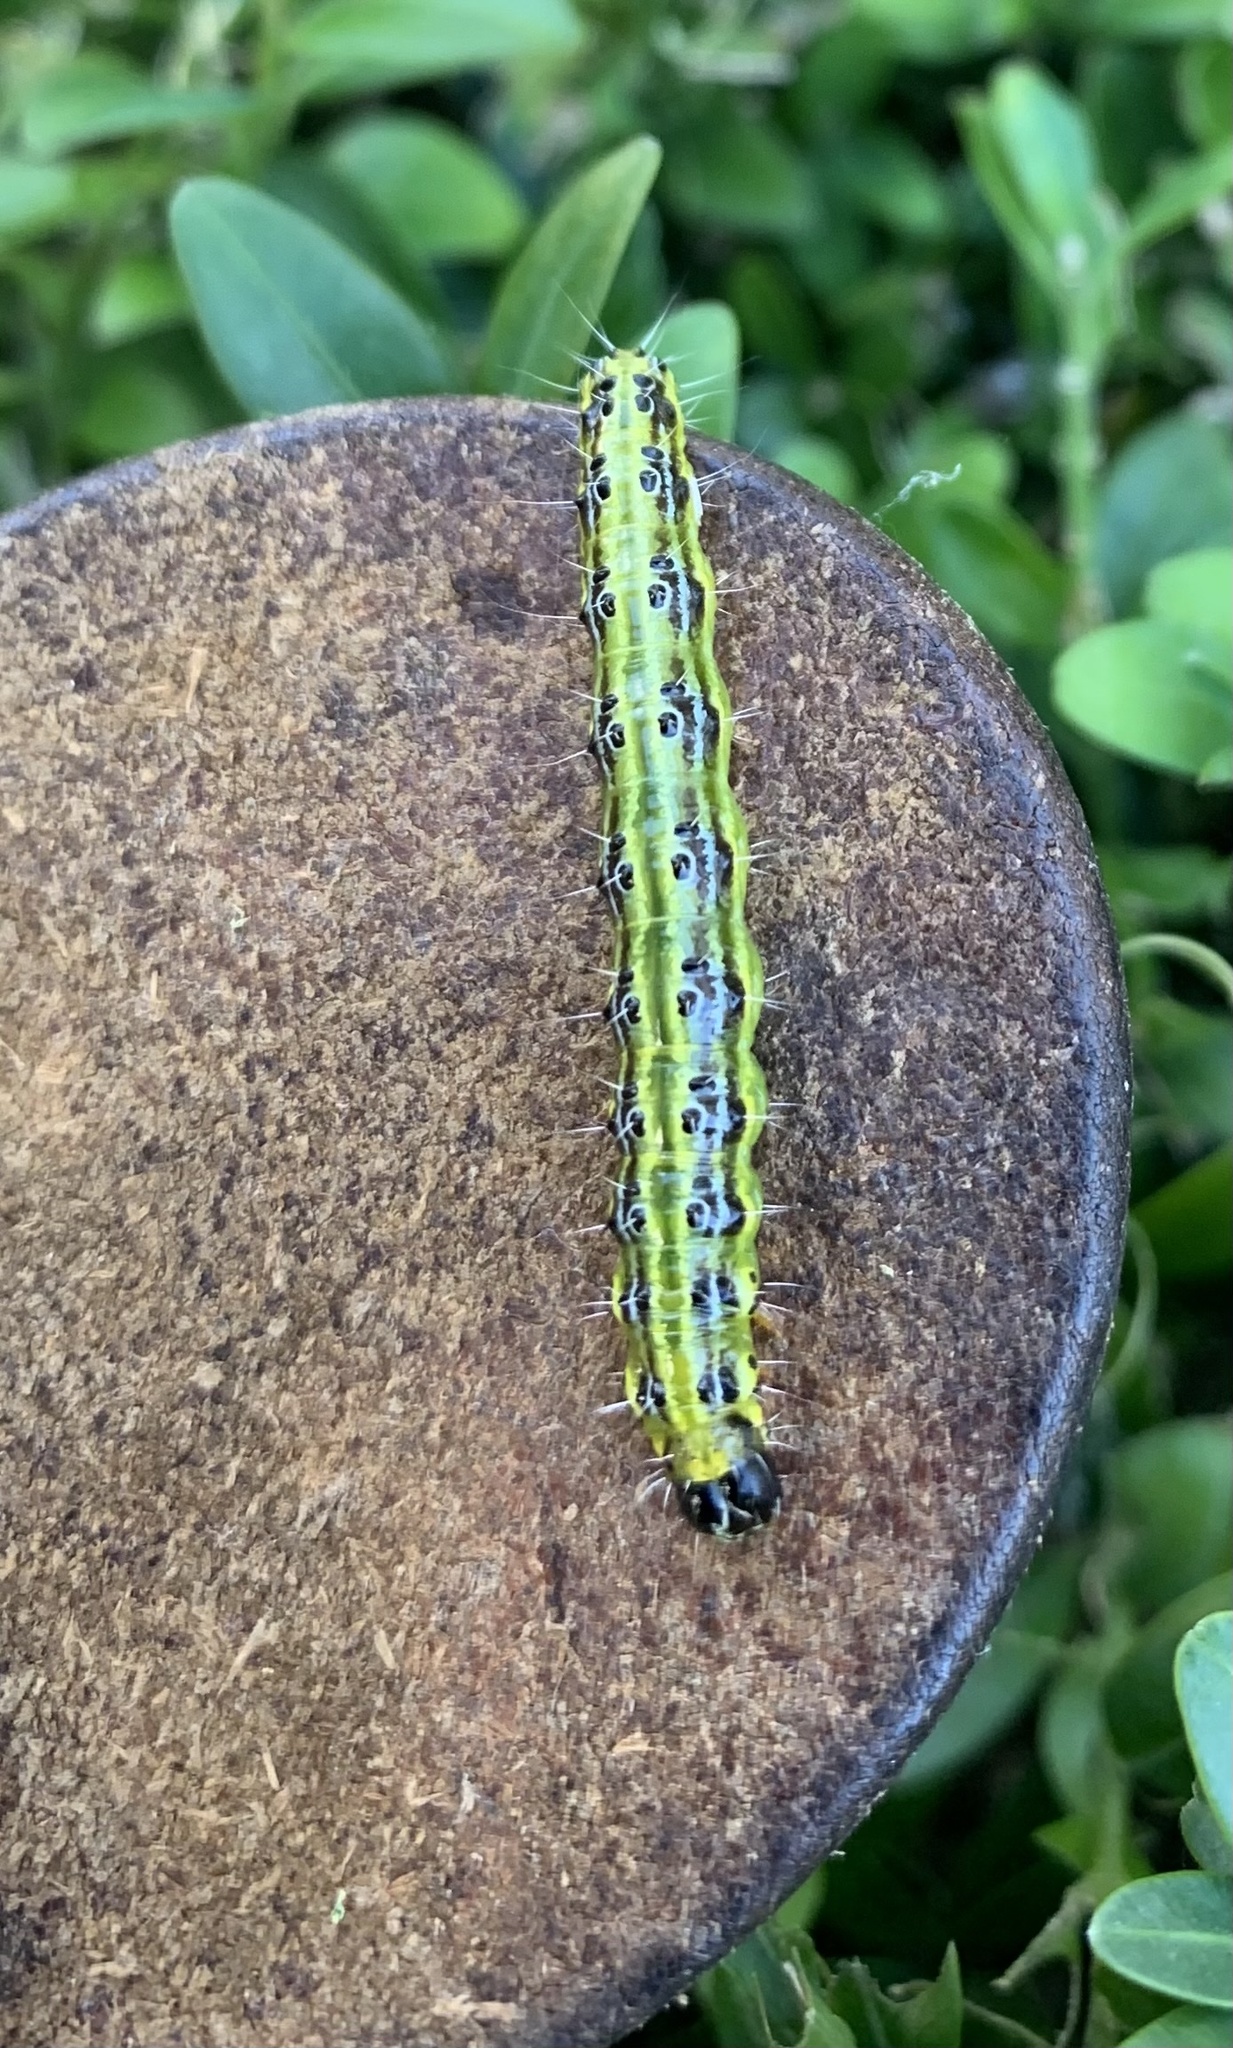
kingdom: Animalia
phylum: Arthropoda
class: Insecta
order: Lepidoptera
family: Crambidae
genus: Cydalima
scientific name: Cydalima perspectalis
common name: Box tree moth
